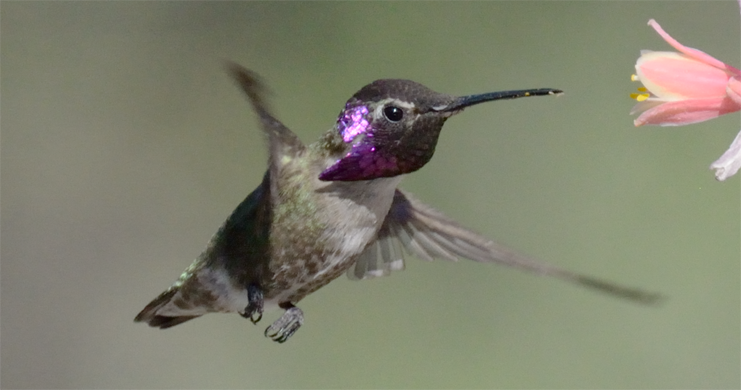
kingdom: Animalia
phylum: Chordata
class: Aves
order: Apodiformes
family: Trochilidae
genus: Calypte
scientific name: Calypte costae
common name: Costa's hummingbird
